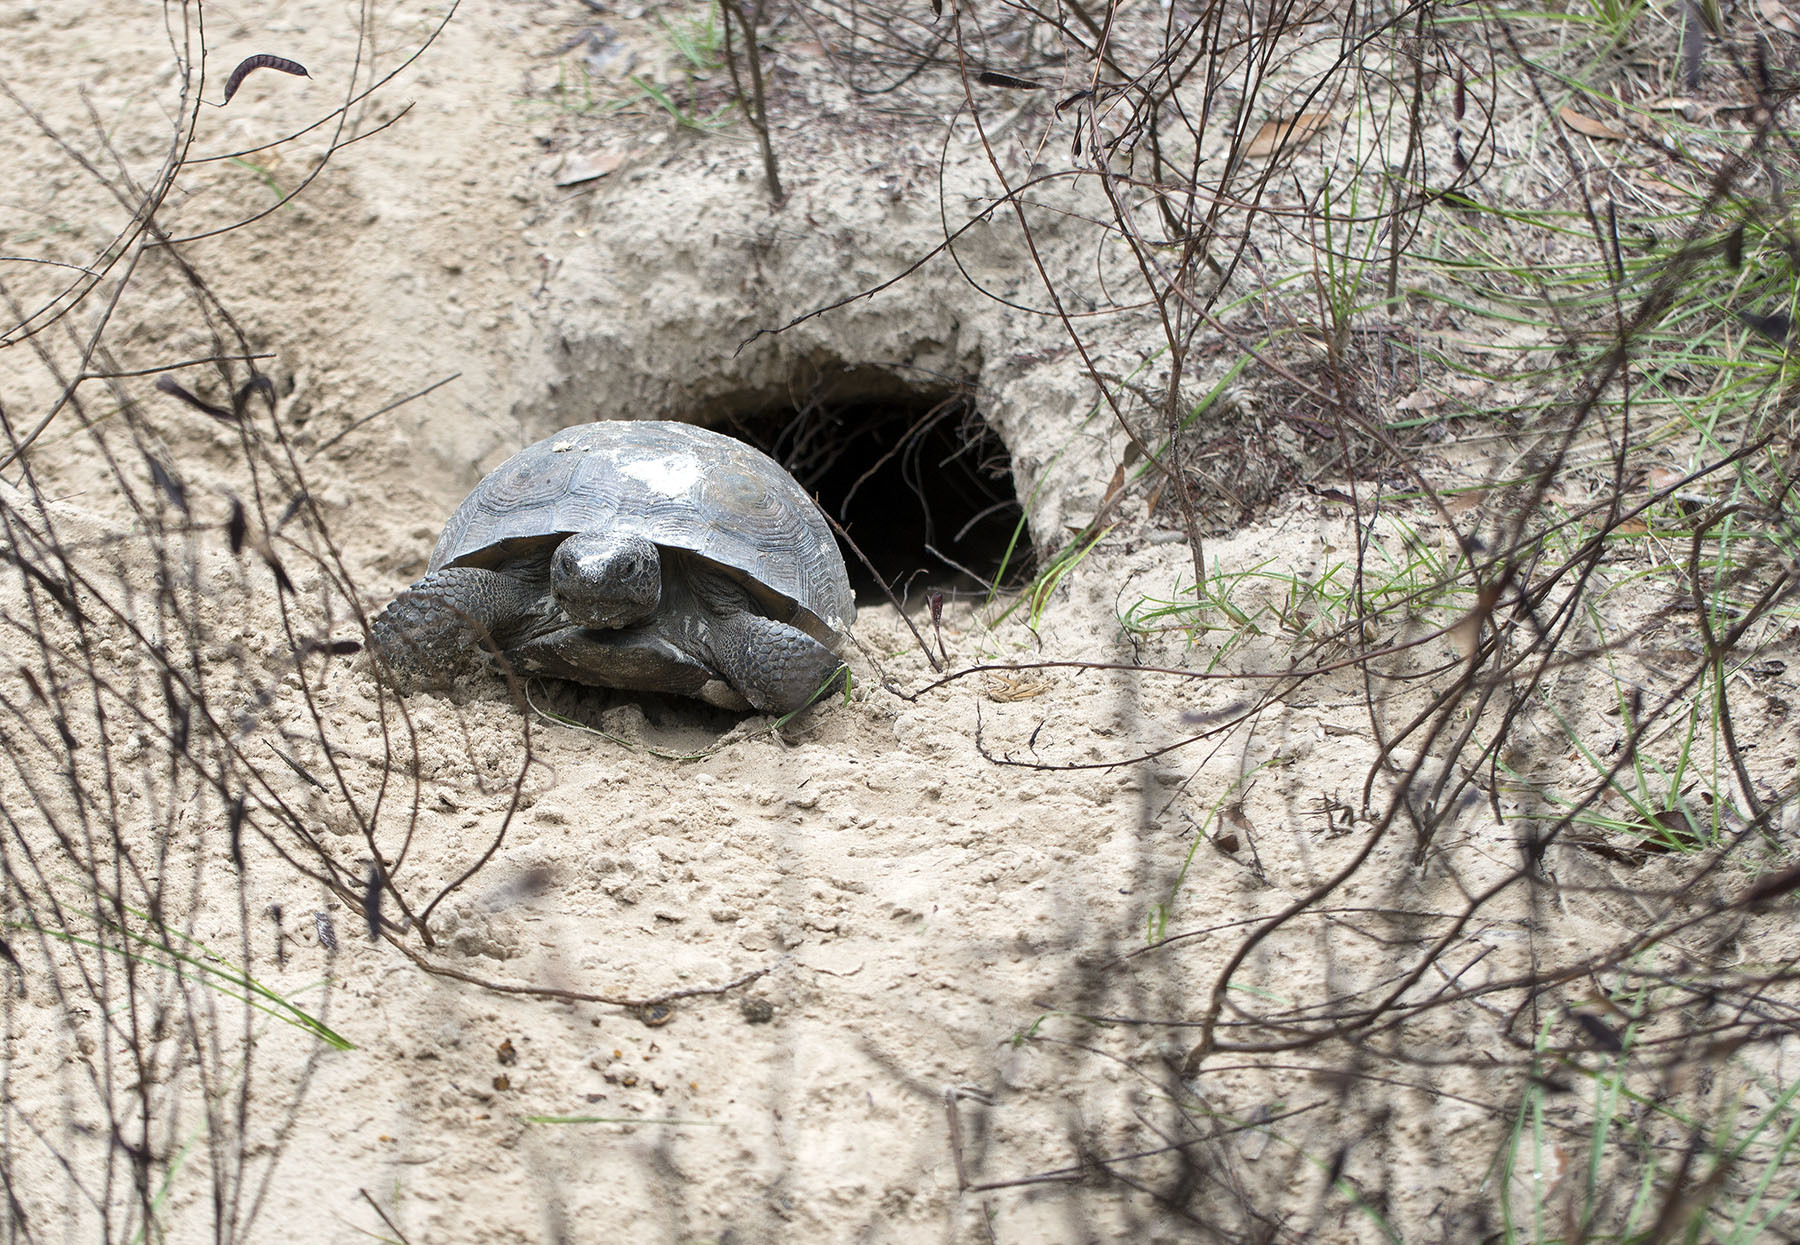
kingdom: Animalia
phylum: Chordata
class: Testudines
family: Testudinidae
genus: Gopherus
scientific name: Gopherus polyphemus
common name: Florida gopher tortoise
